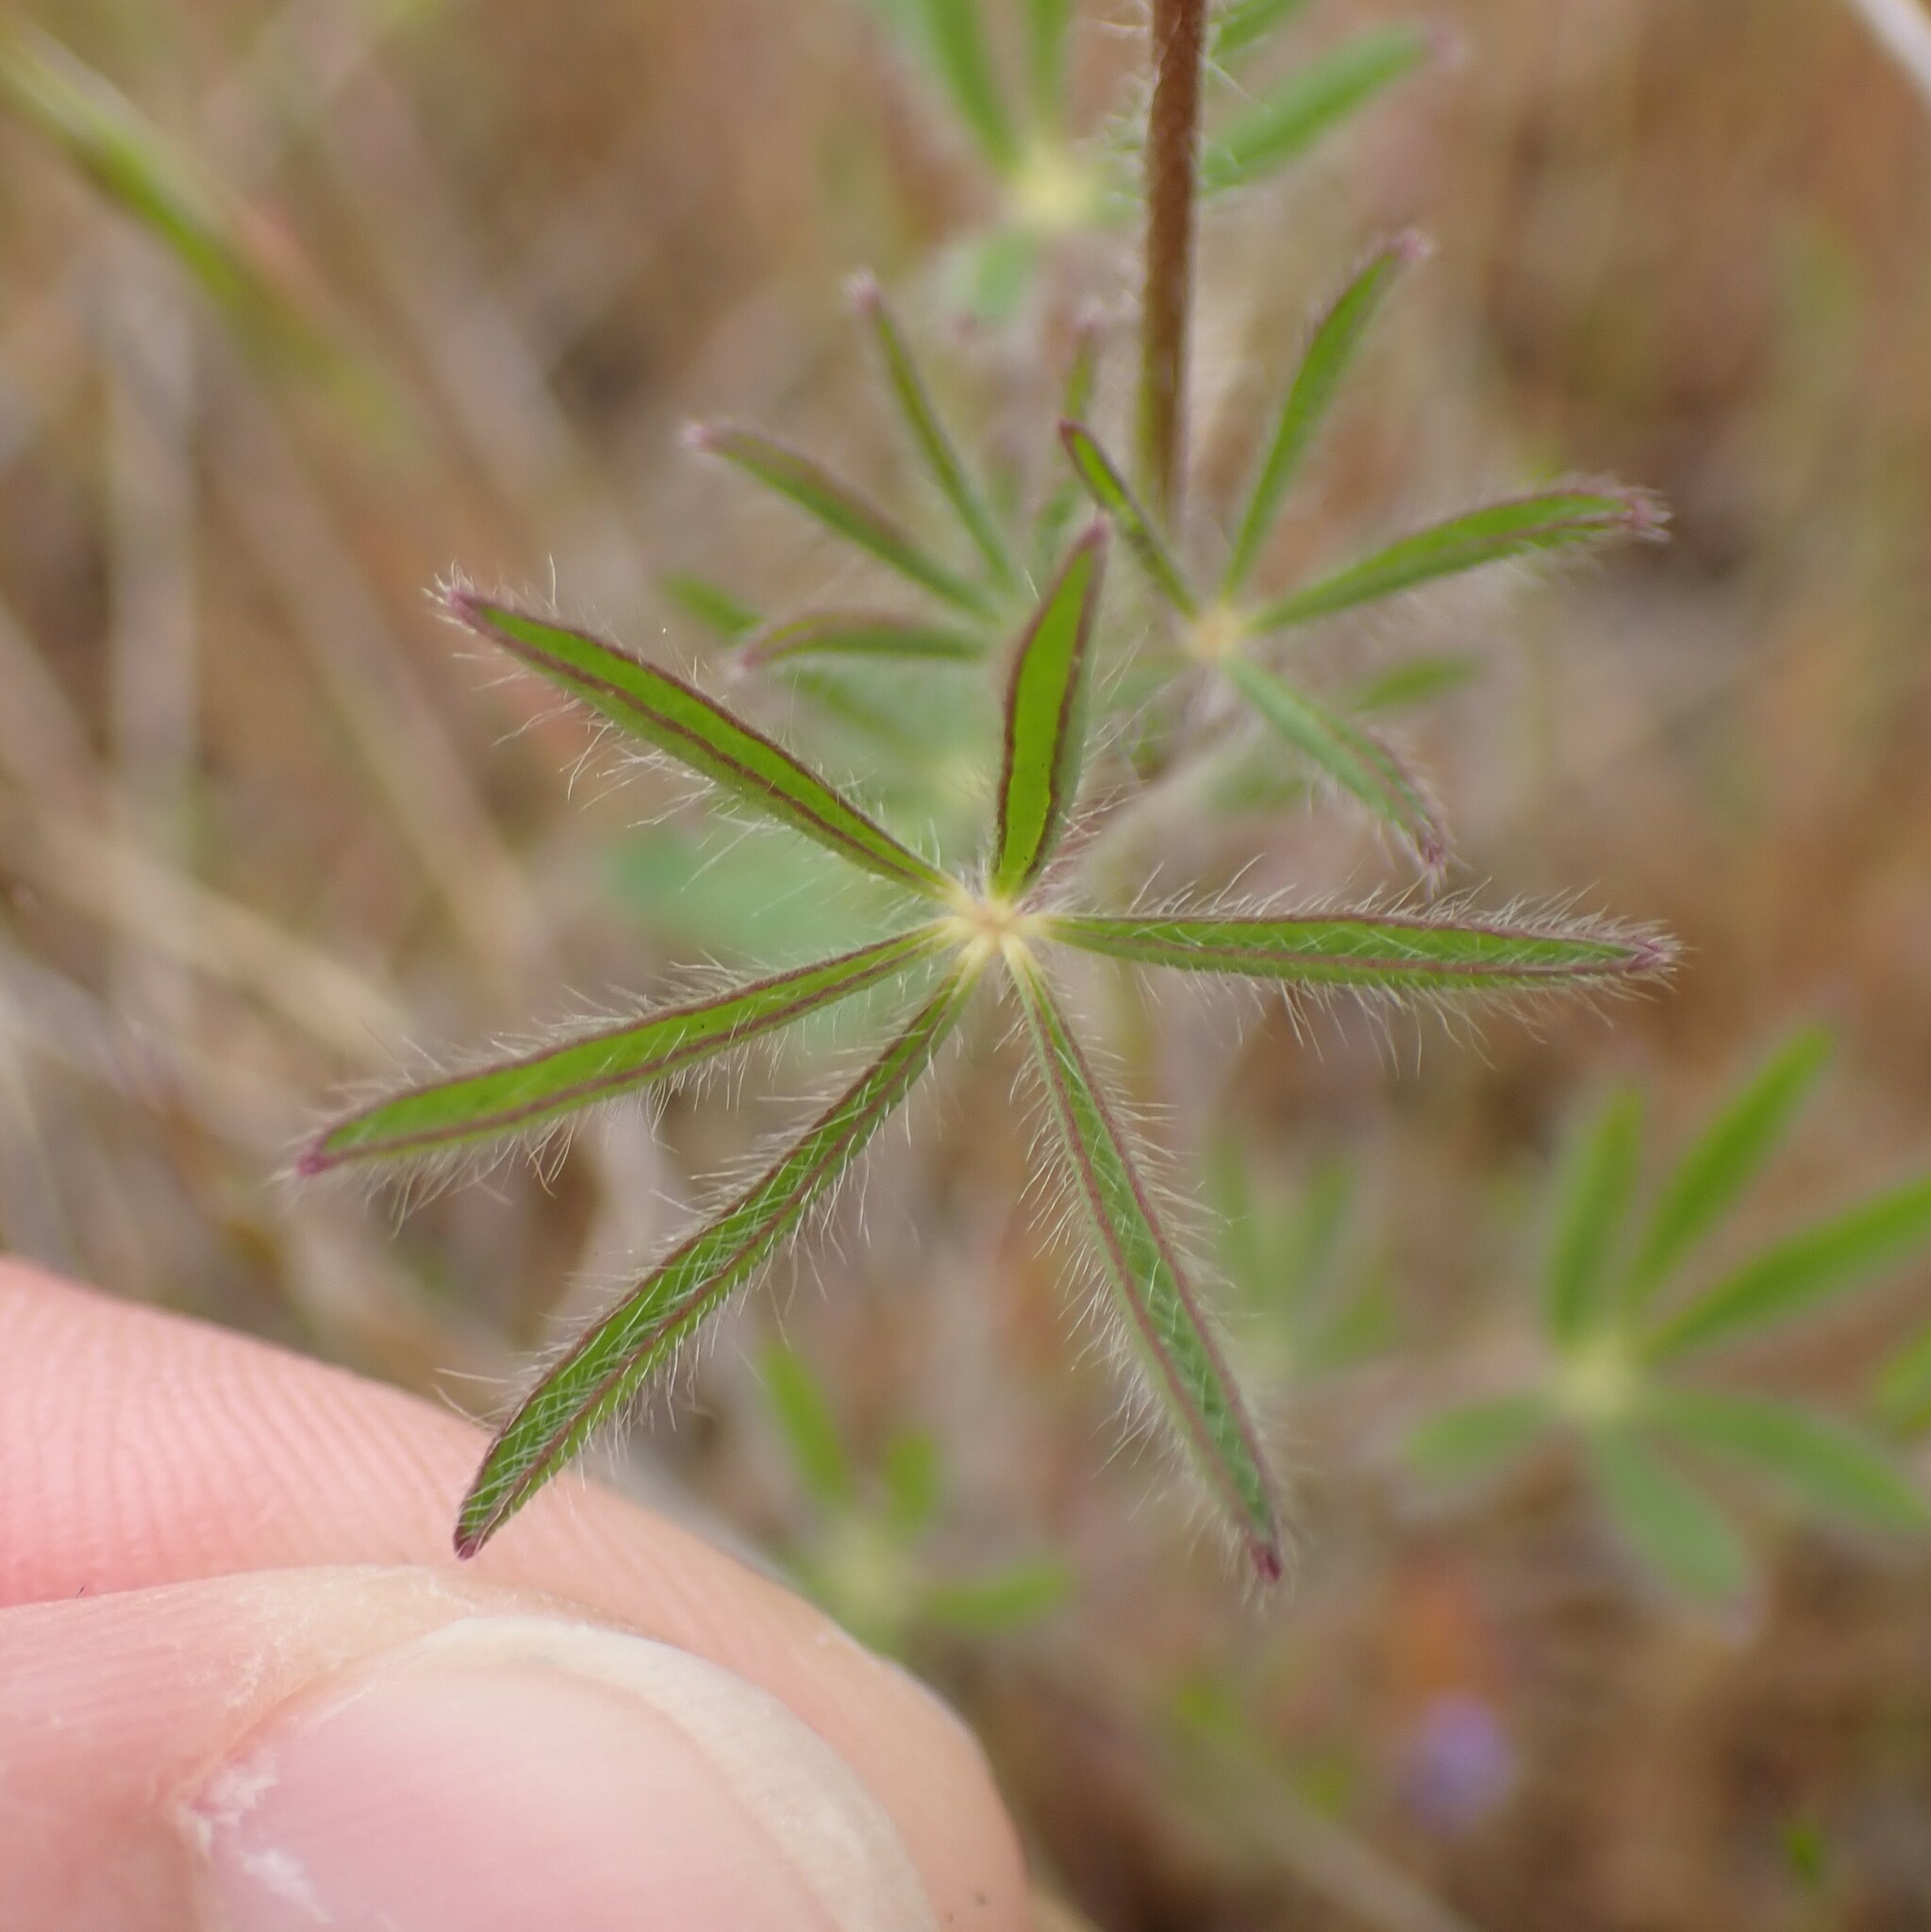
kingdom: Plantae
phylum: Tracheophyta
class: Magnoliopsida
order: Fabales
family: Fabaceae
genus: Lupinus
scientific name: Lupinus bicolor
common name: Miniature lupine
